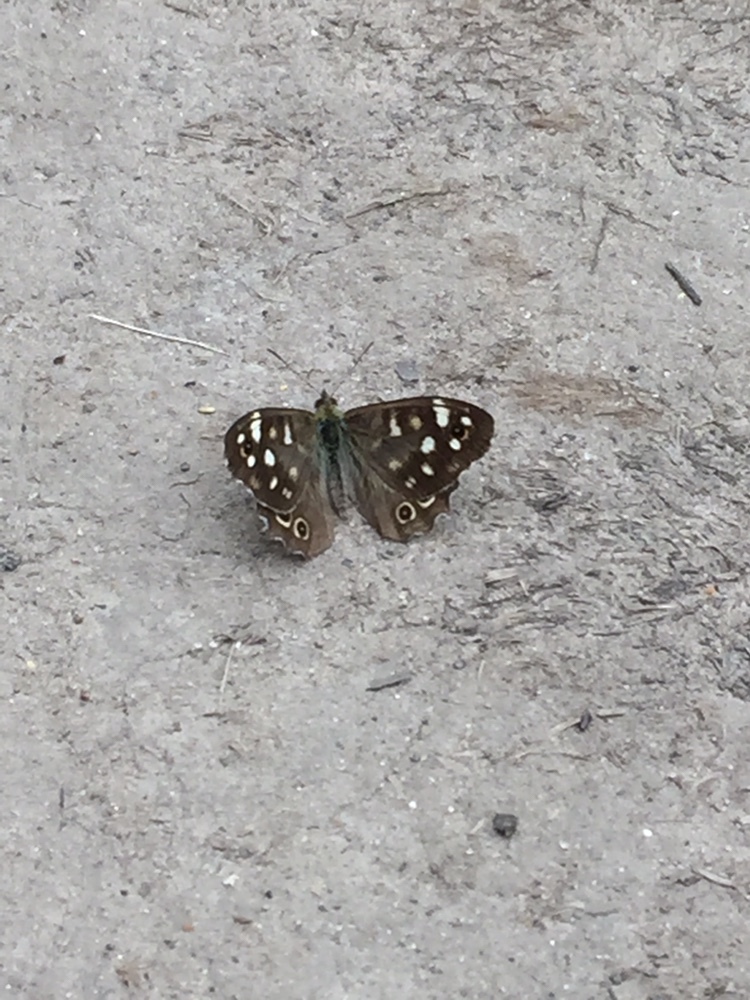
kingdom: Animalia
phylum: Arthropoda
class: Insecta
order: Lepidoptera
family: Nymphalidae
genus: Pararge
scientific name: Pararge aegeria
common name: Speckled wood
